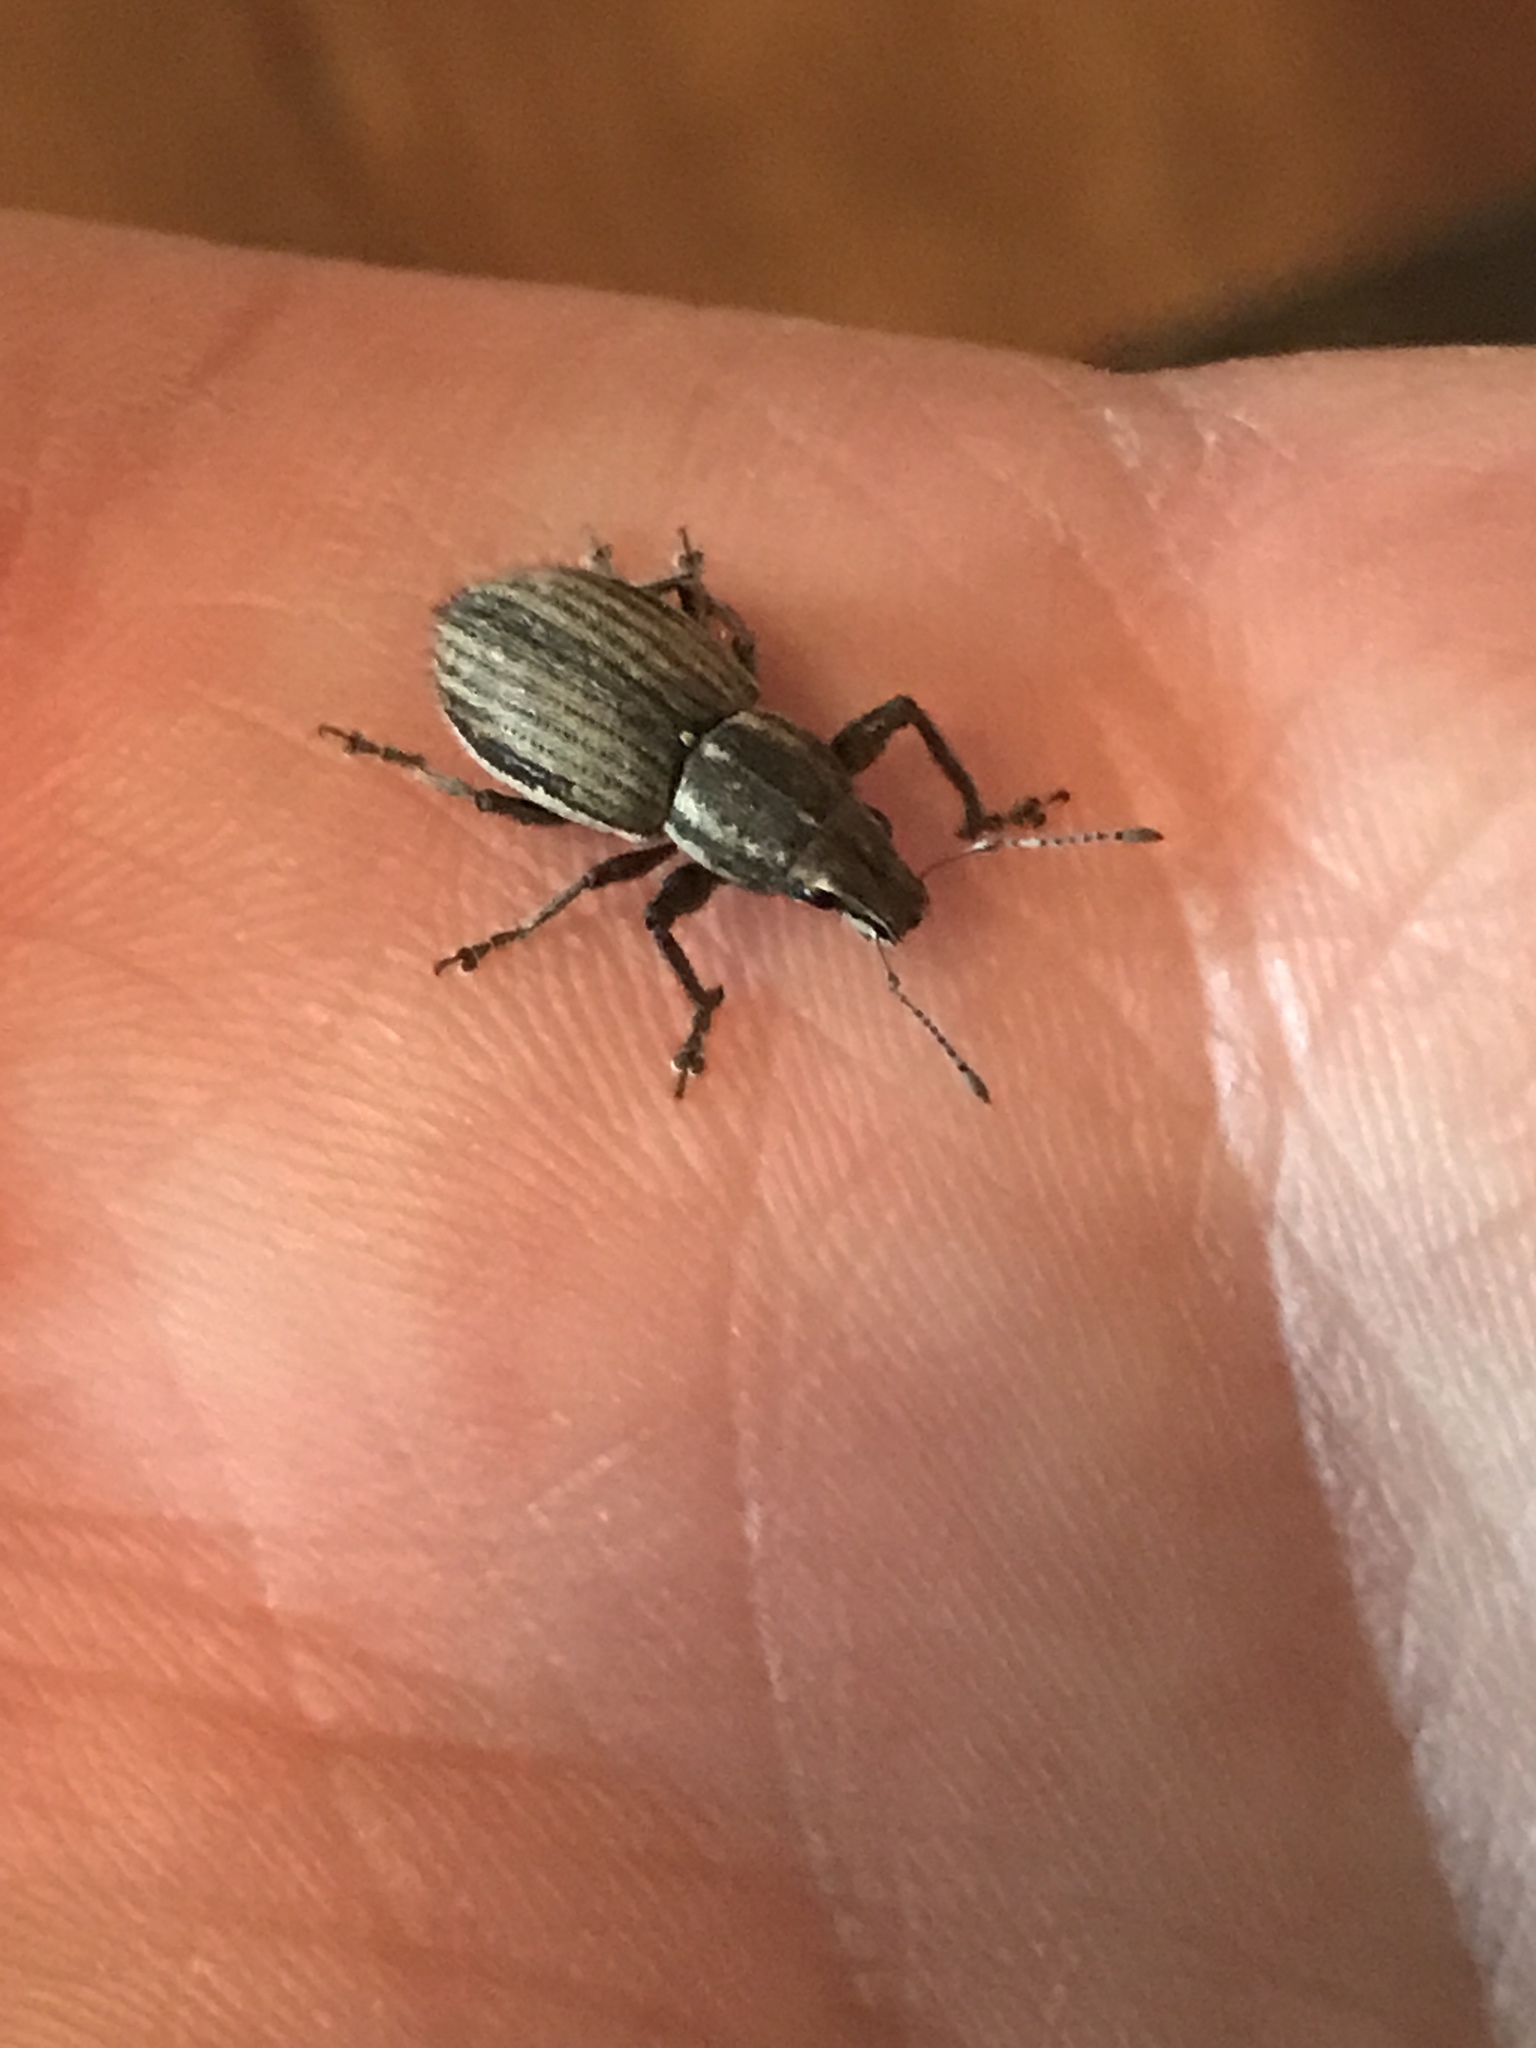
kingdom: Animalia
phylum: Arthropoda
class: Insecta
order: Coleoptera
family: Curculionidae
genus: Naupactus
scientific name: Naupactus leucoloma
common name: Whitefringed beetle
